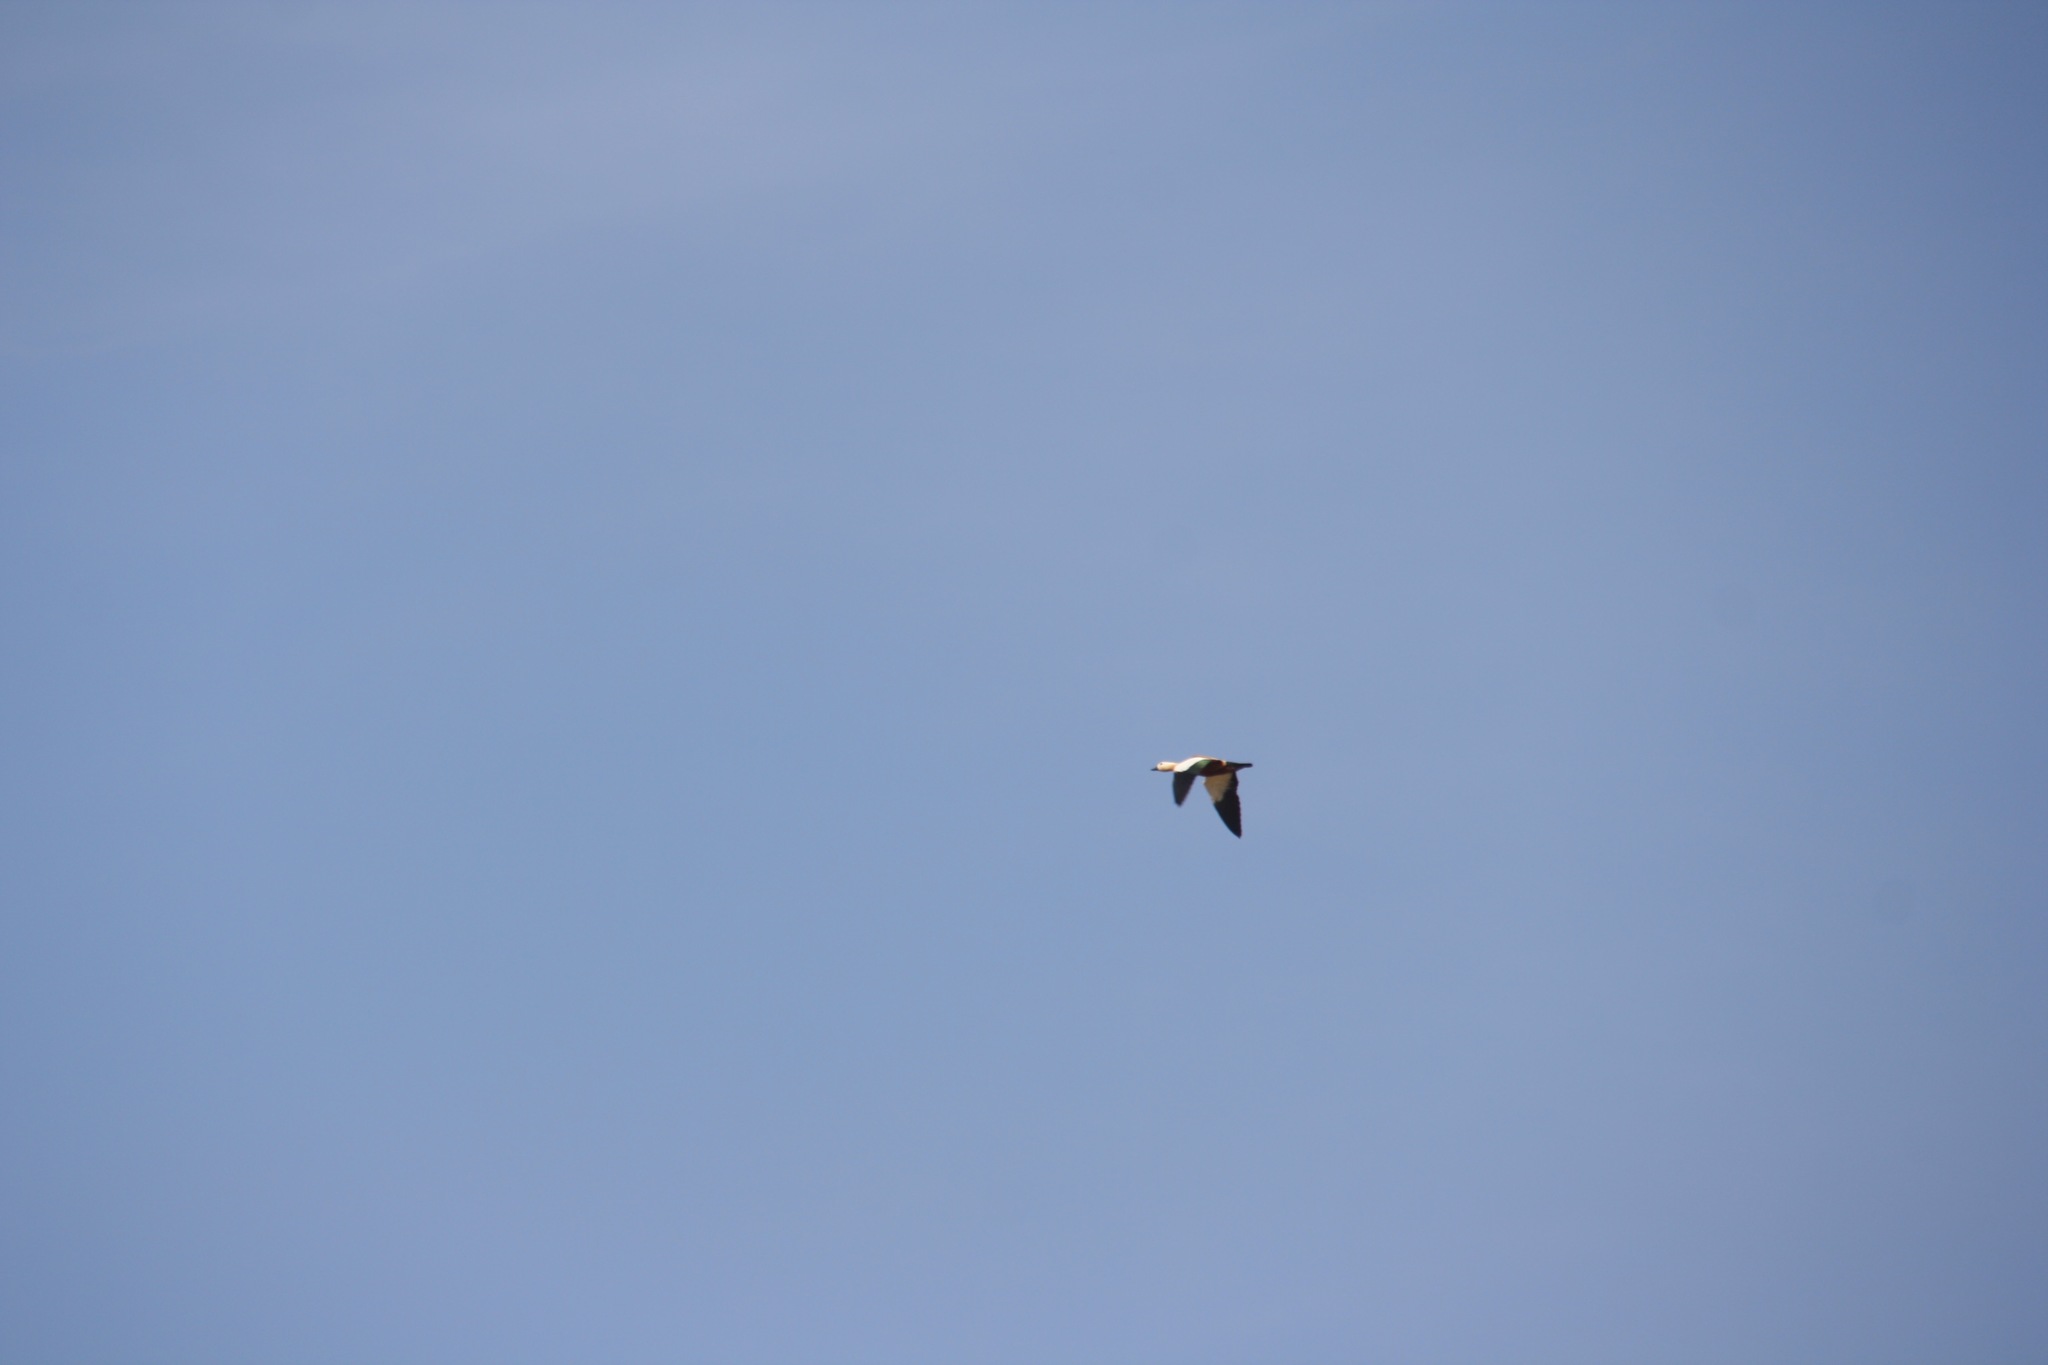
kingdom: Animalia
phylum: Chordata
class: Aves
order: Anseriformes
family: Anatidae
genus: Tadorna
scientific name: Tadorna ferruginea
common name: Ruddy shelduck
